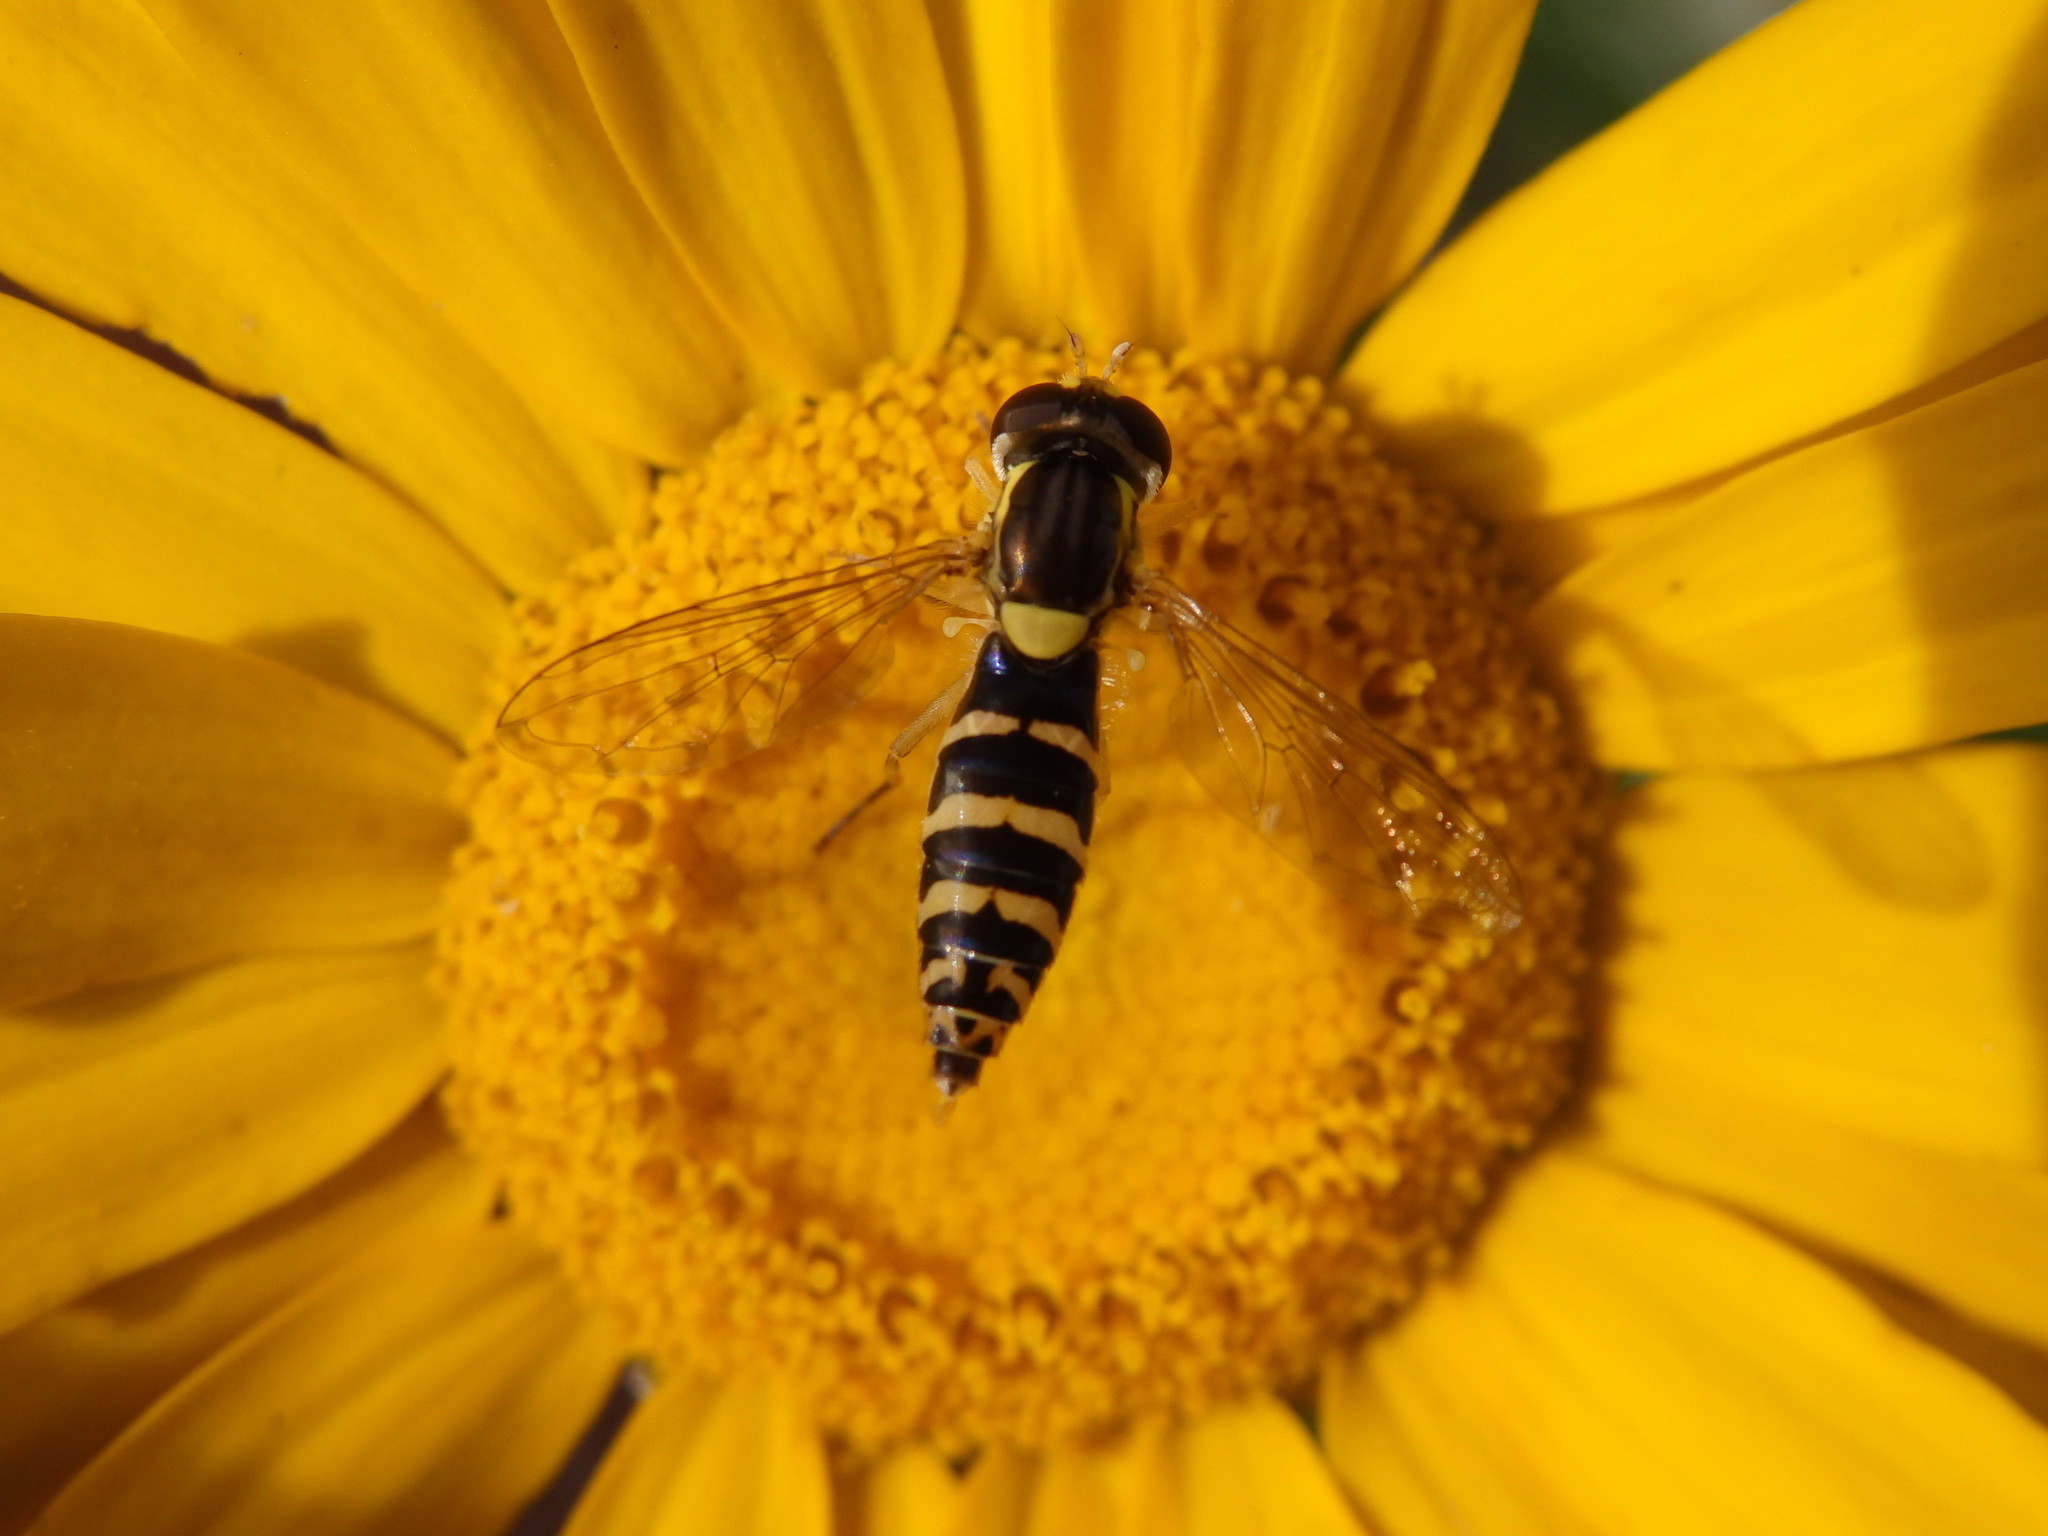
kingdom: Animalia
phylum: Arthropoda
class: Insecta
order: Diptera
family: Syrphidae
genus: Sphaerophoria
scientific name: Sphaerophoria
